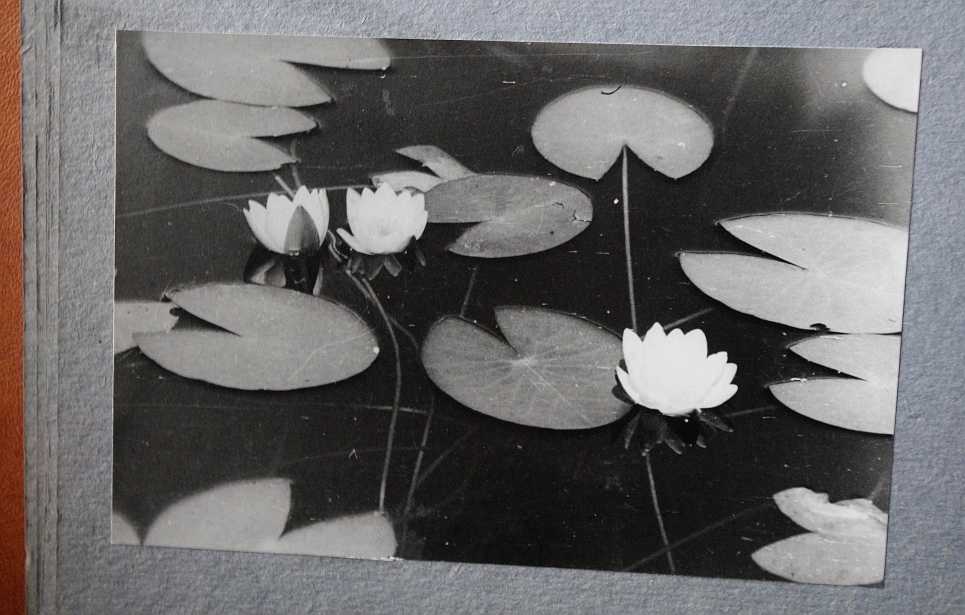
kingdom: Plantae
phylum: Tracheophyta
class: Magnoliopsida
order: Nymphaeales
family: Nymphaeaceae
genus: Nymphaea
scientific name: Nymphaea candida
